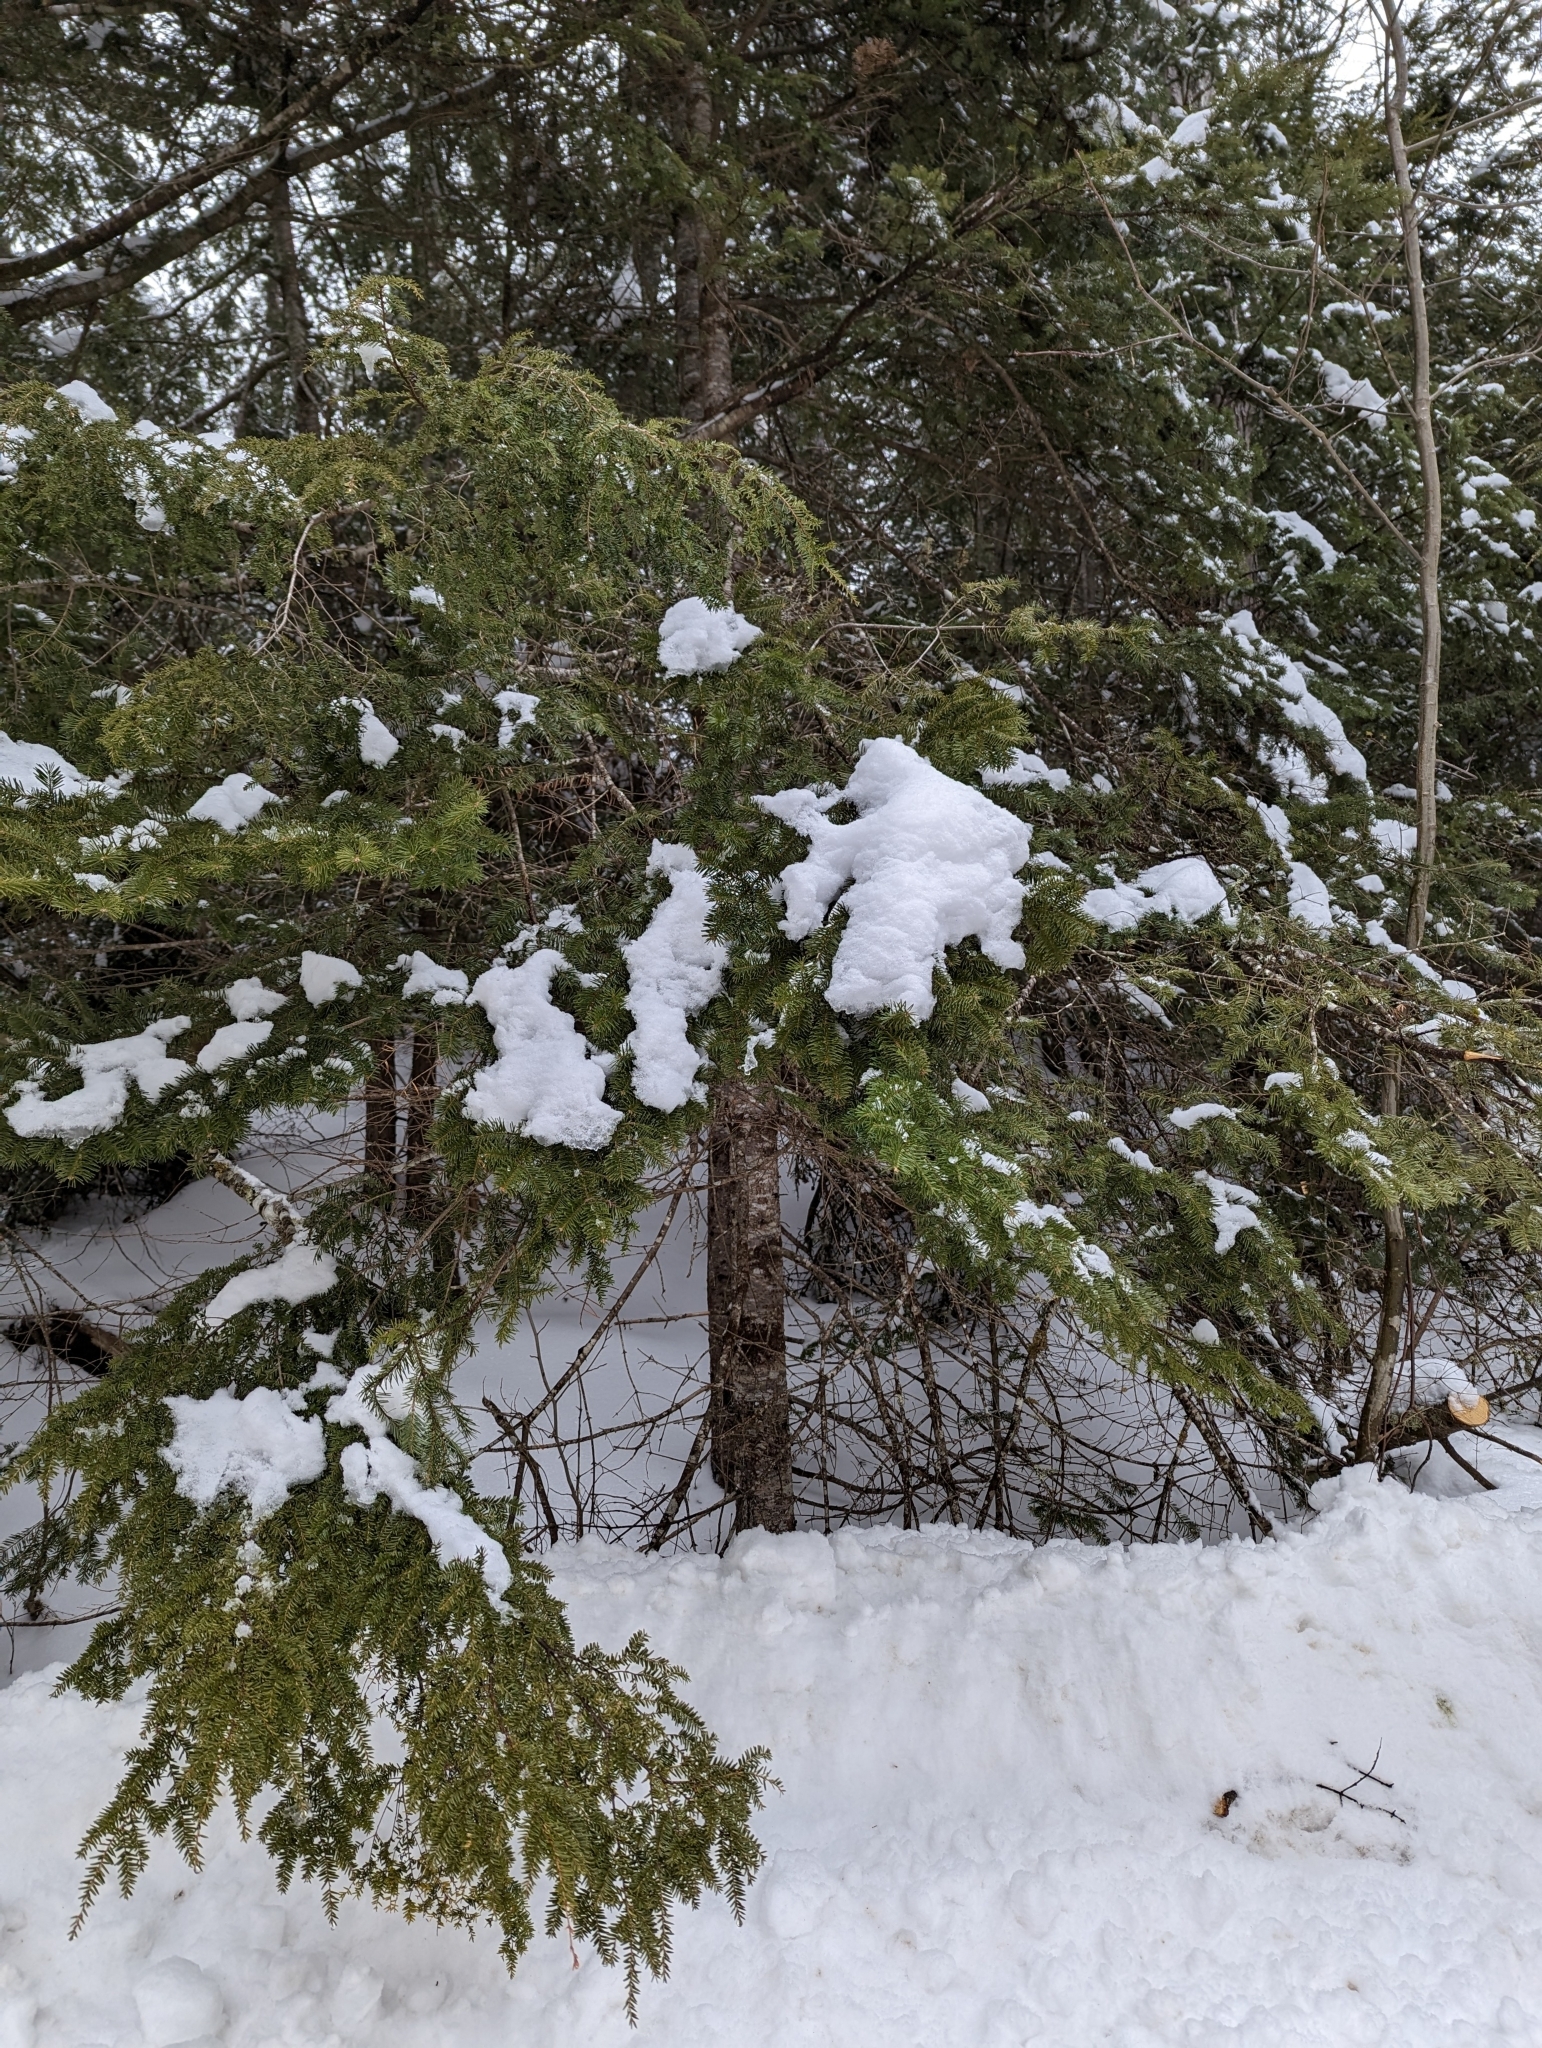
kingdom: Plantae
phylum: Tracheophyta
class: Pinopsida
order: Pinales
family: Pinaceae
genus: Abies
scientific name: Abies balsamea
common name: Balsam fir
